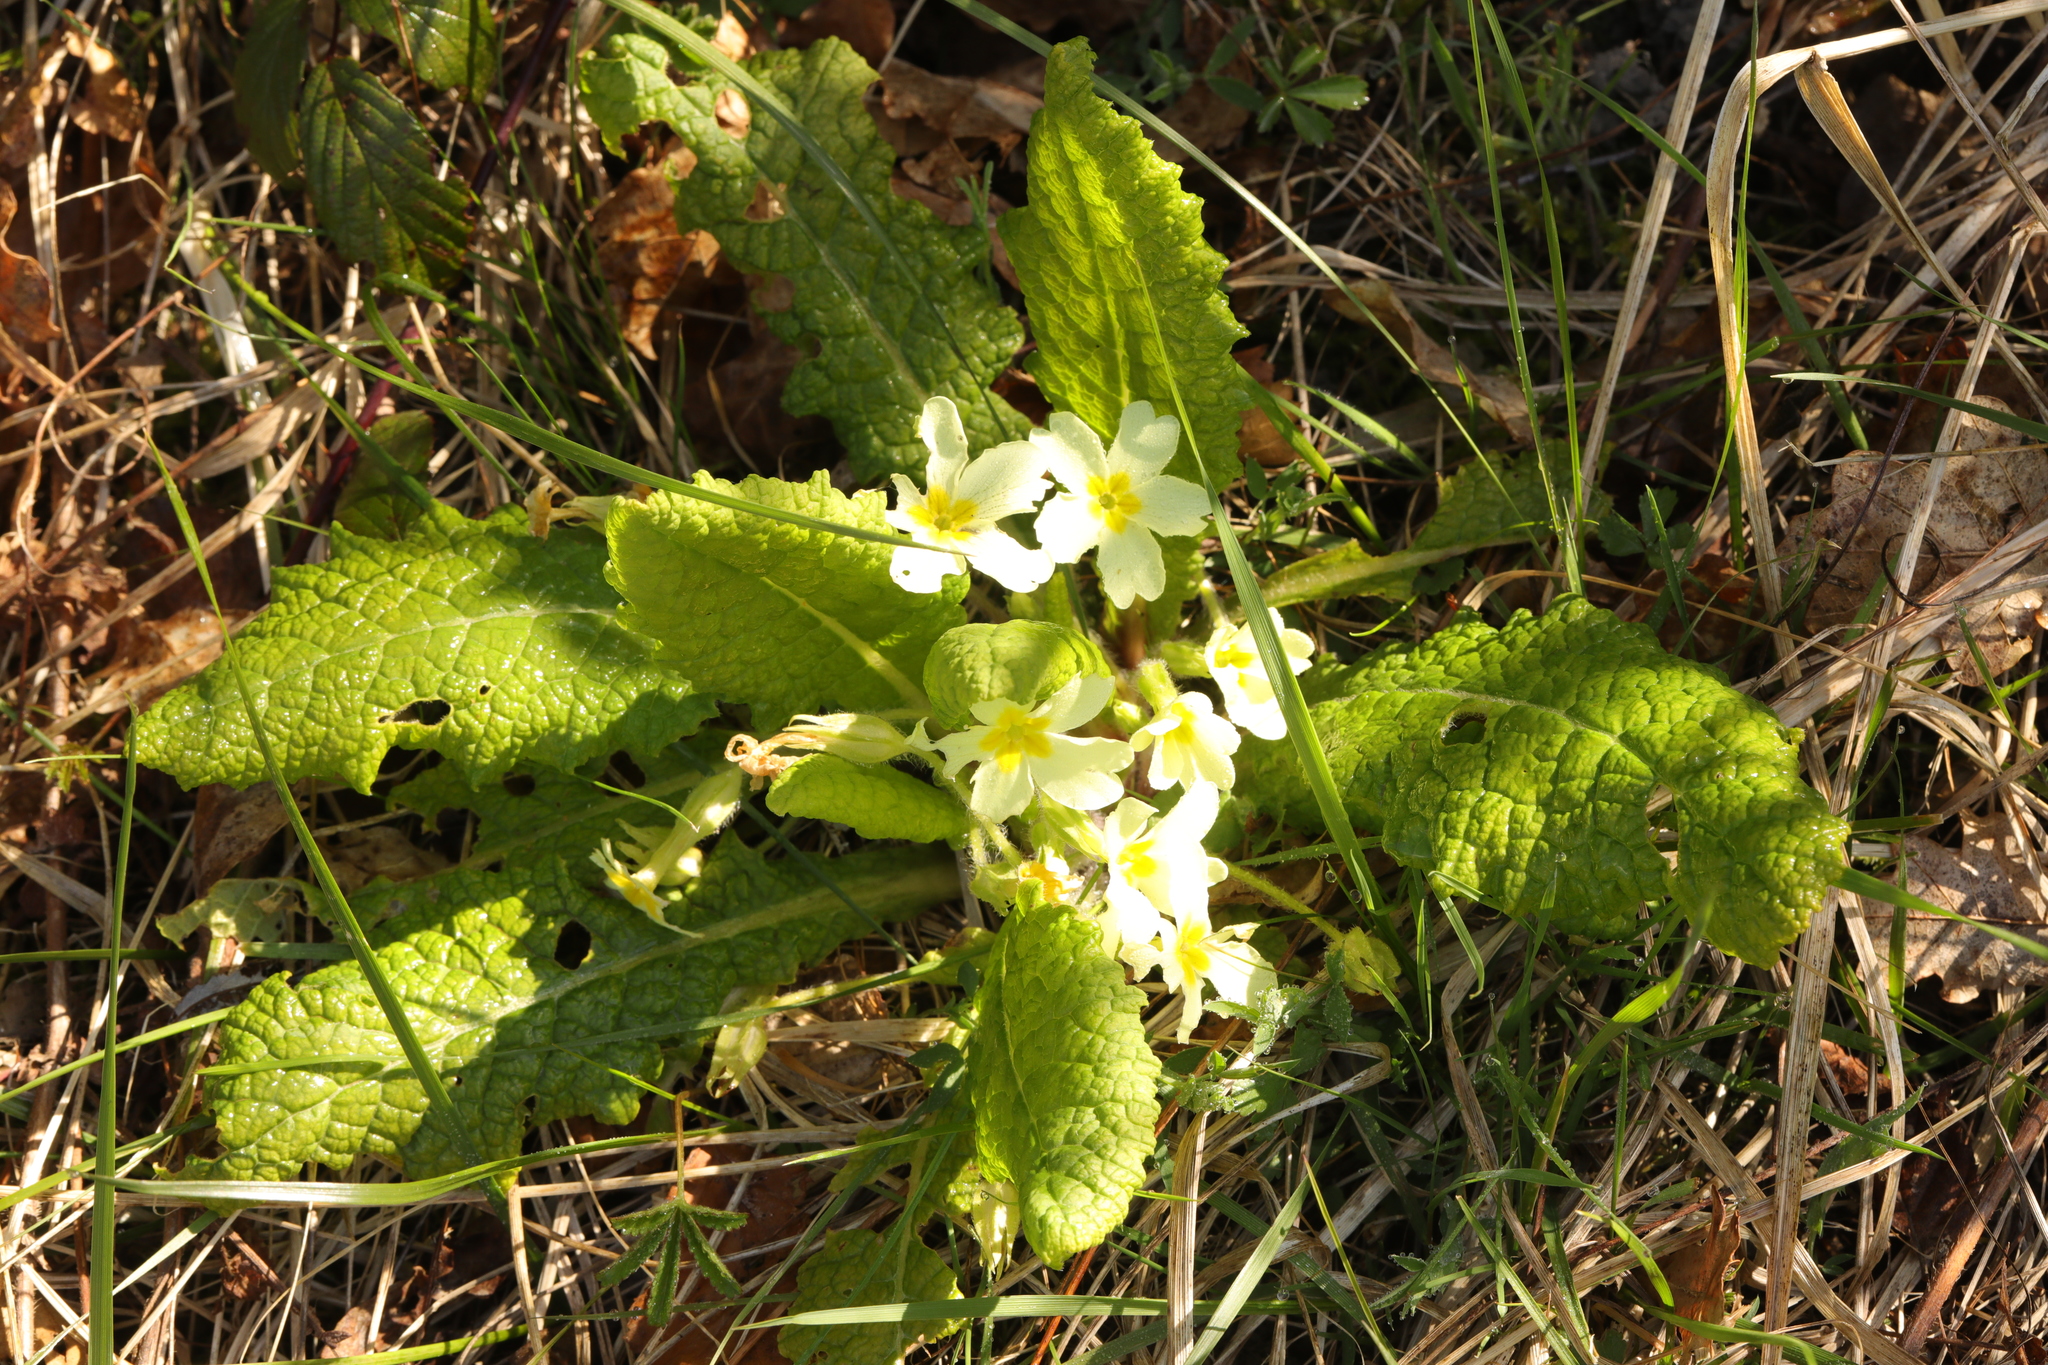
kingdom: Plantae
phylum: Tracheophyta
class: Magnoliopsida
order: Ericales
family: Primulaceae
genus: Primula
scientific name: Primula vulgaris
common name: Primrose
